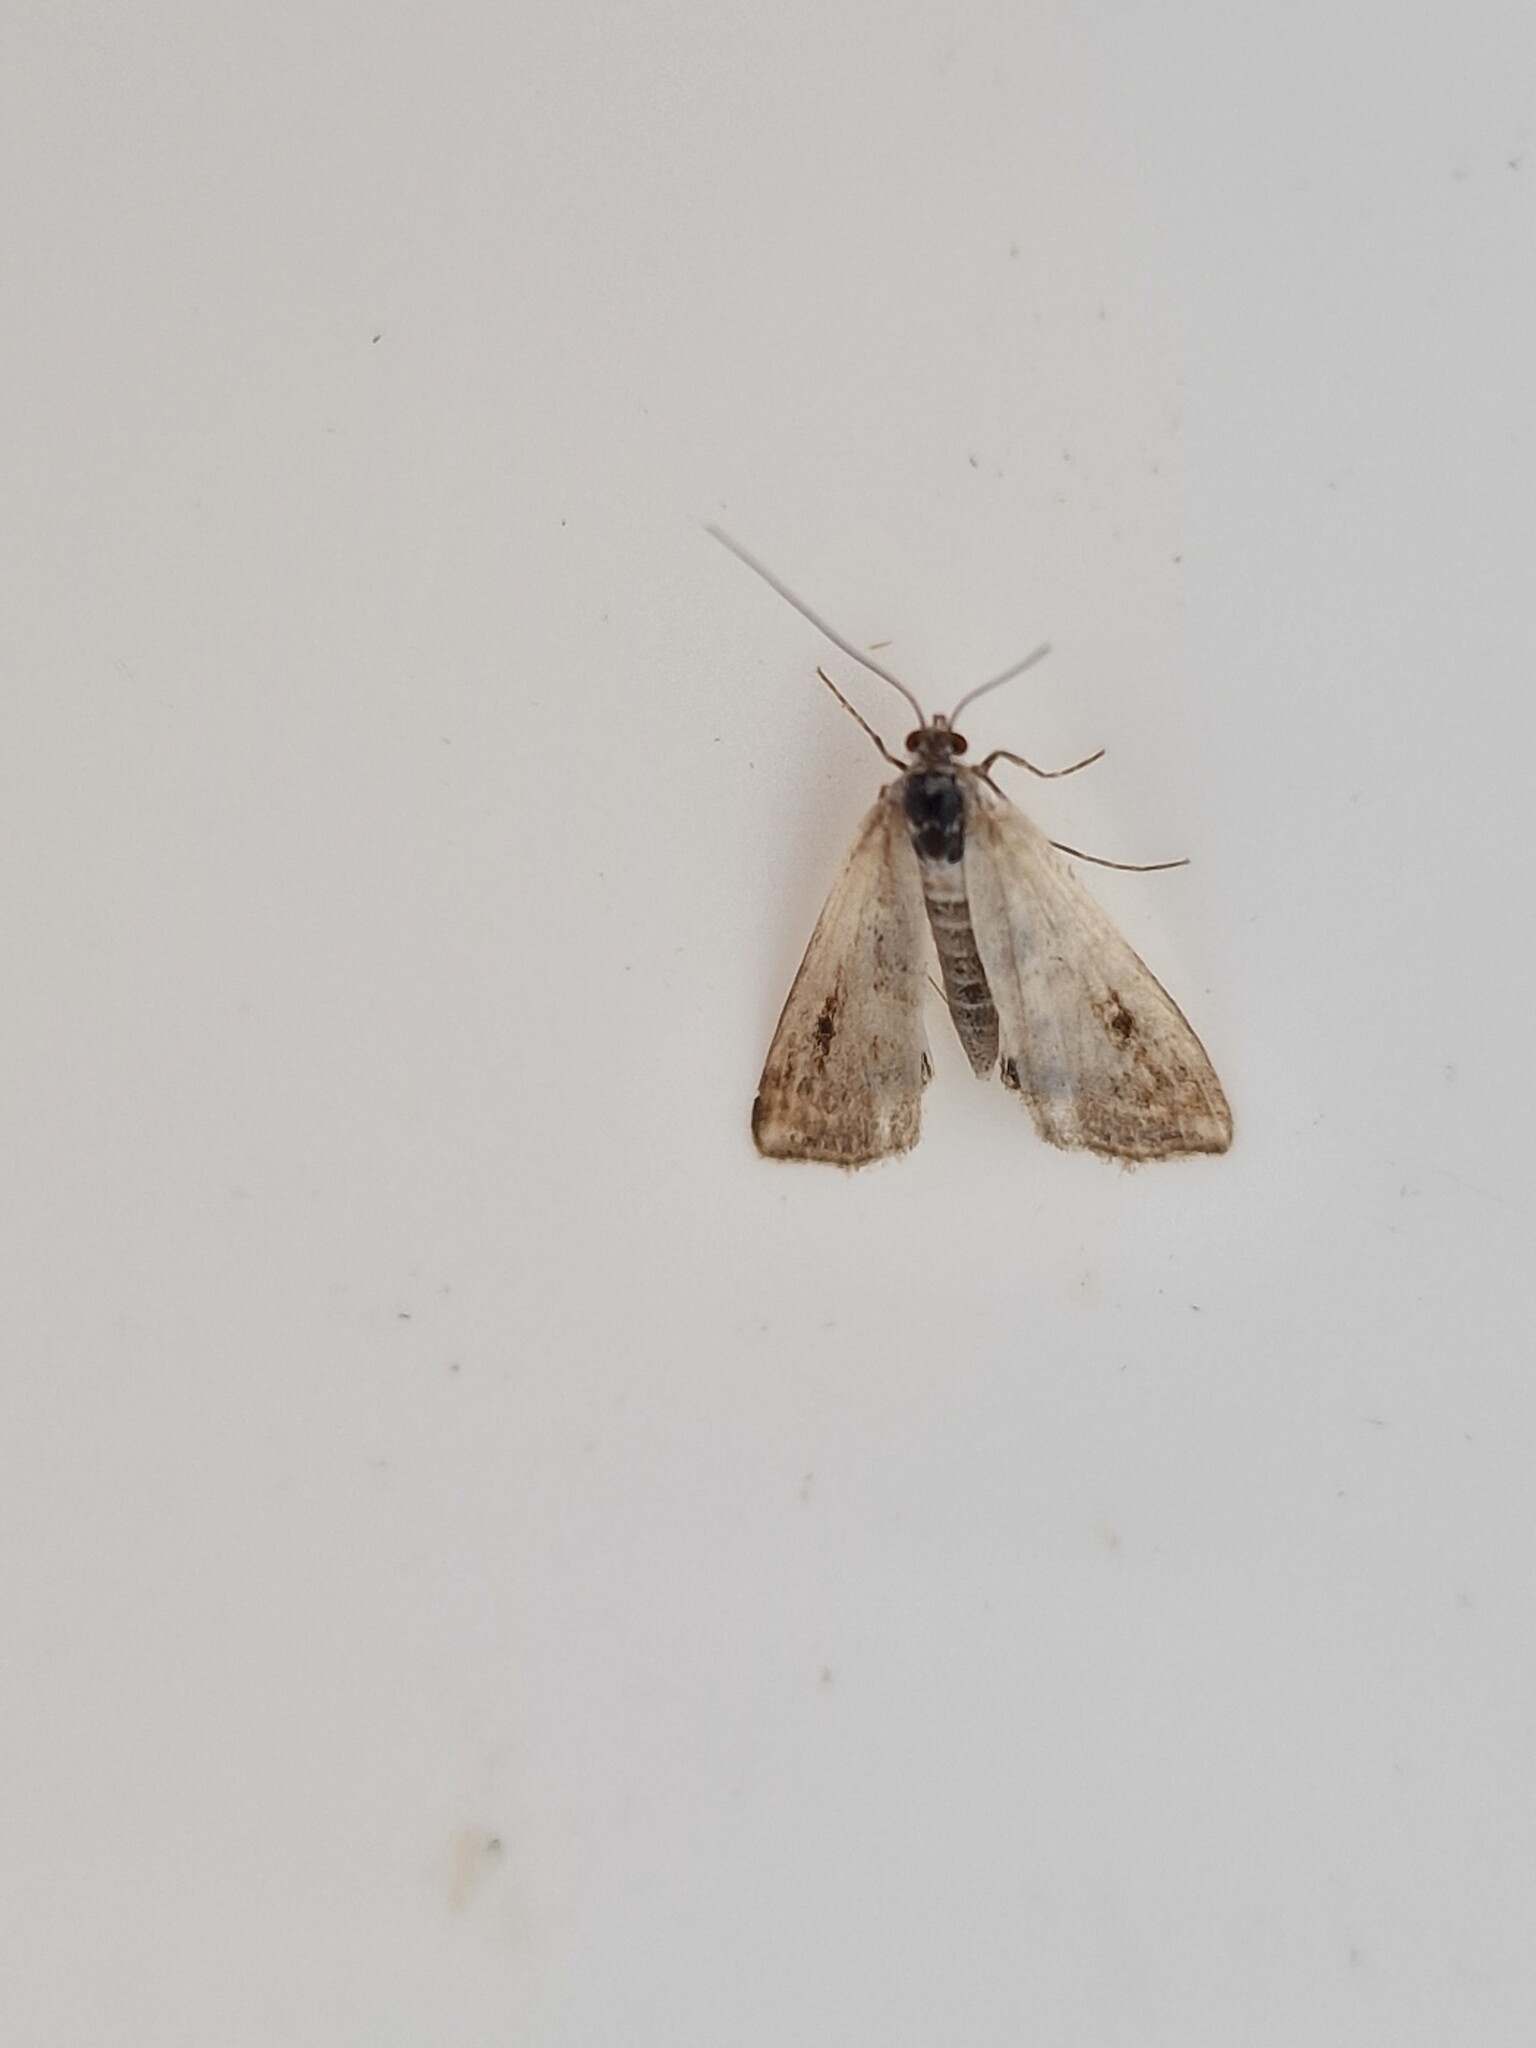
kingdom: Animalia
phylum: Arthropoda
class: Insecta
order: Lepidoptera
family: Crambidae
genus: Cataclysta
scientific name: Cataclysta lemnata
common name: Small china-mark
